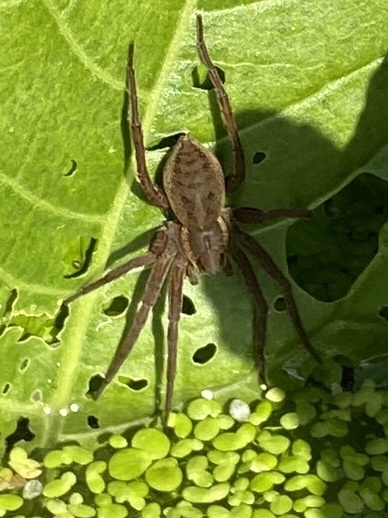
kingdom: Animalia
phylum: Arthropoda
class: Arachnida
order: Araneae
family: Pisauridae
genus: Dolomedes
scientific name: Dolomedes
